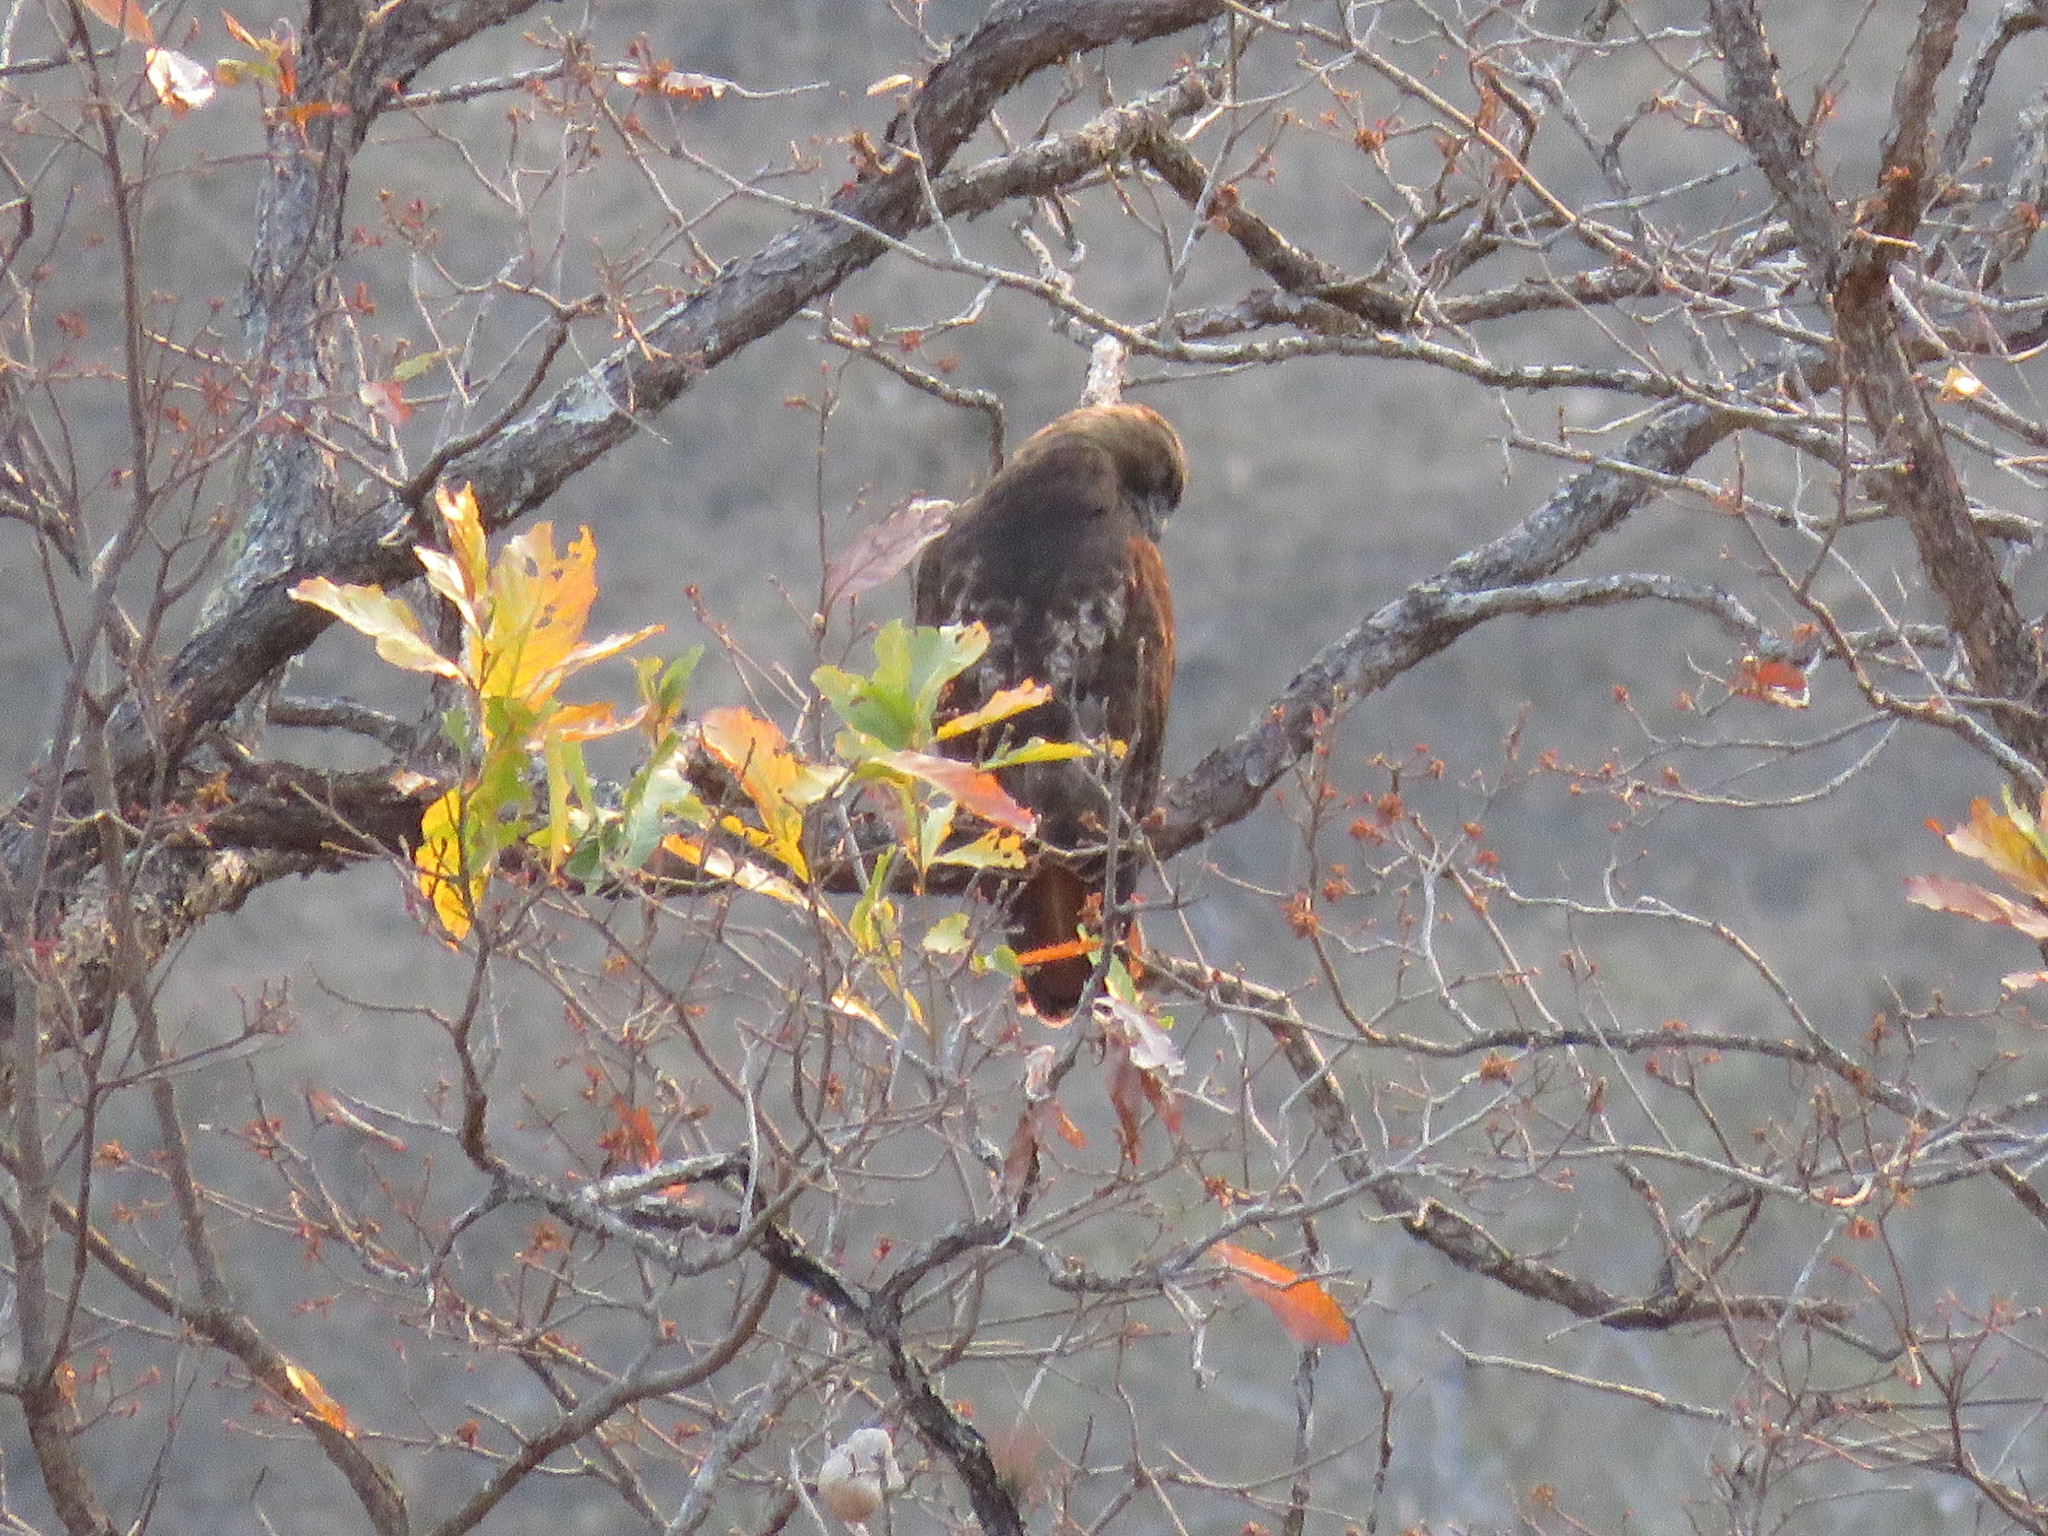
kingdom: Animalia
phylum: Chordata
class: Aves
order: Accipitriformes
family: Accipitridae
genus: Buteo
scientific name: Buteo jamaicensis
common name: Red-tailed hawk
